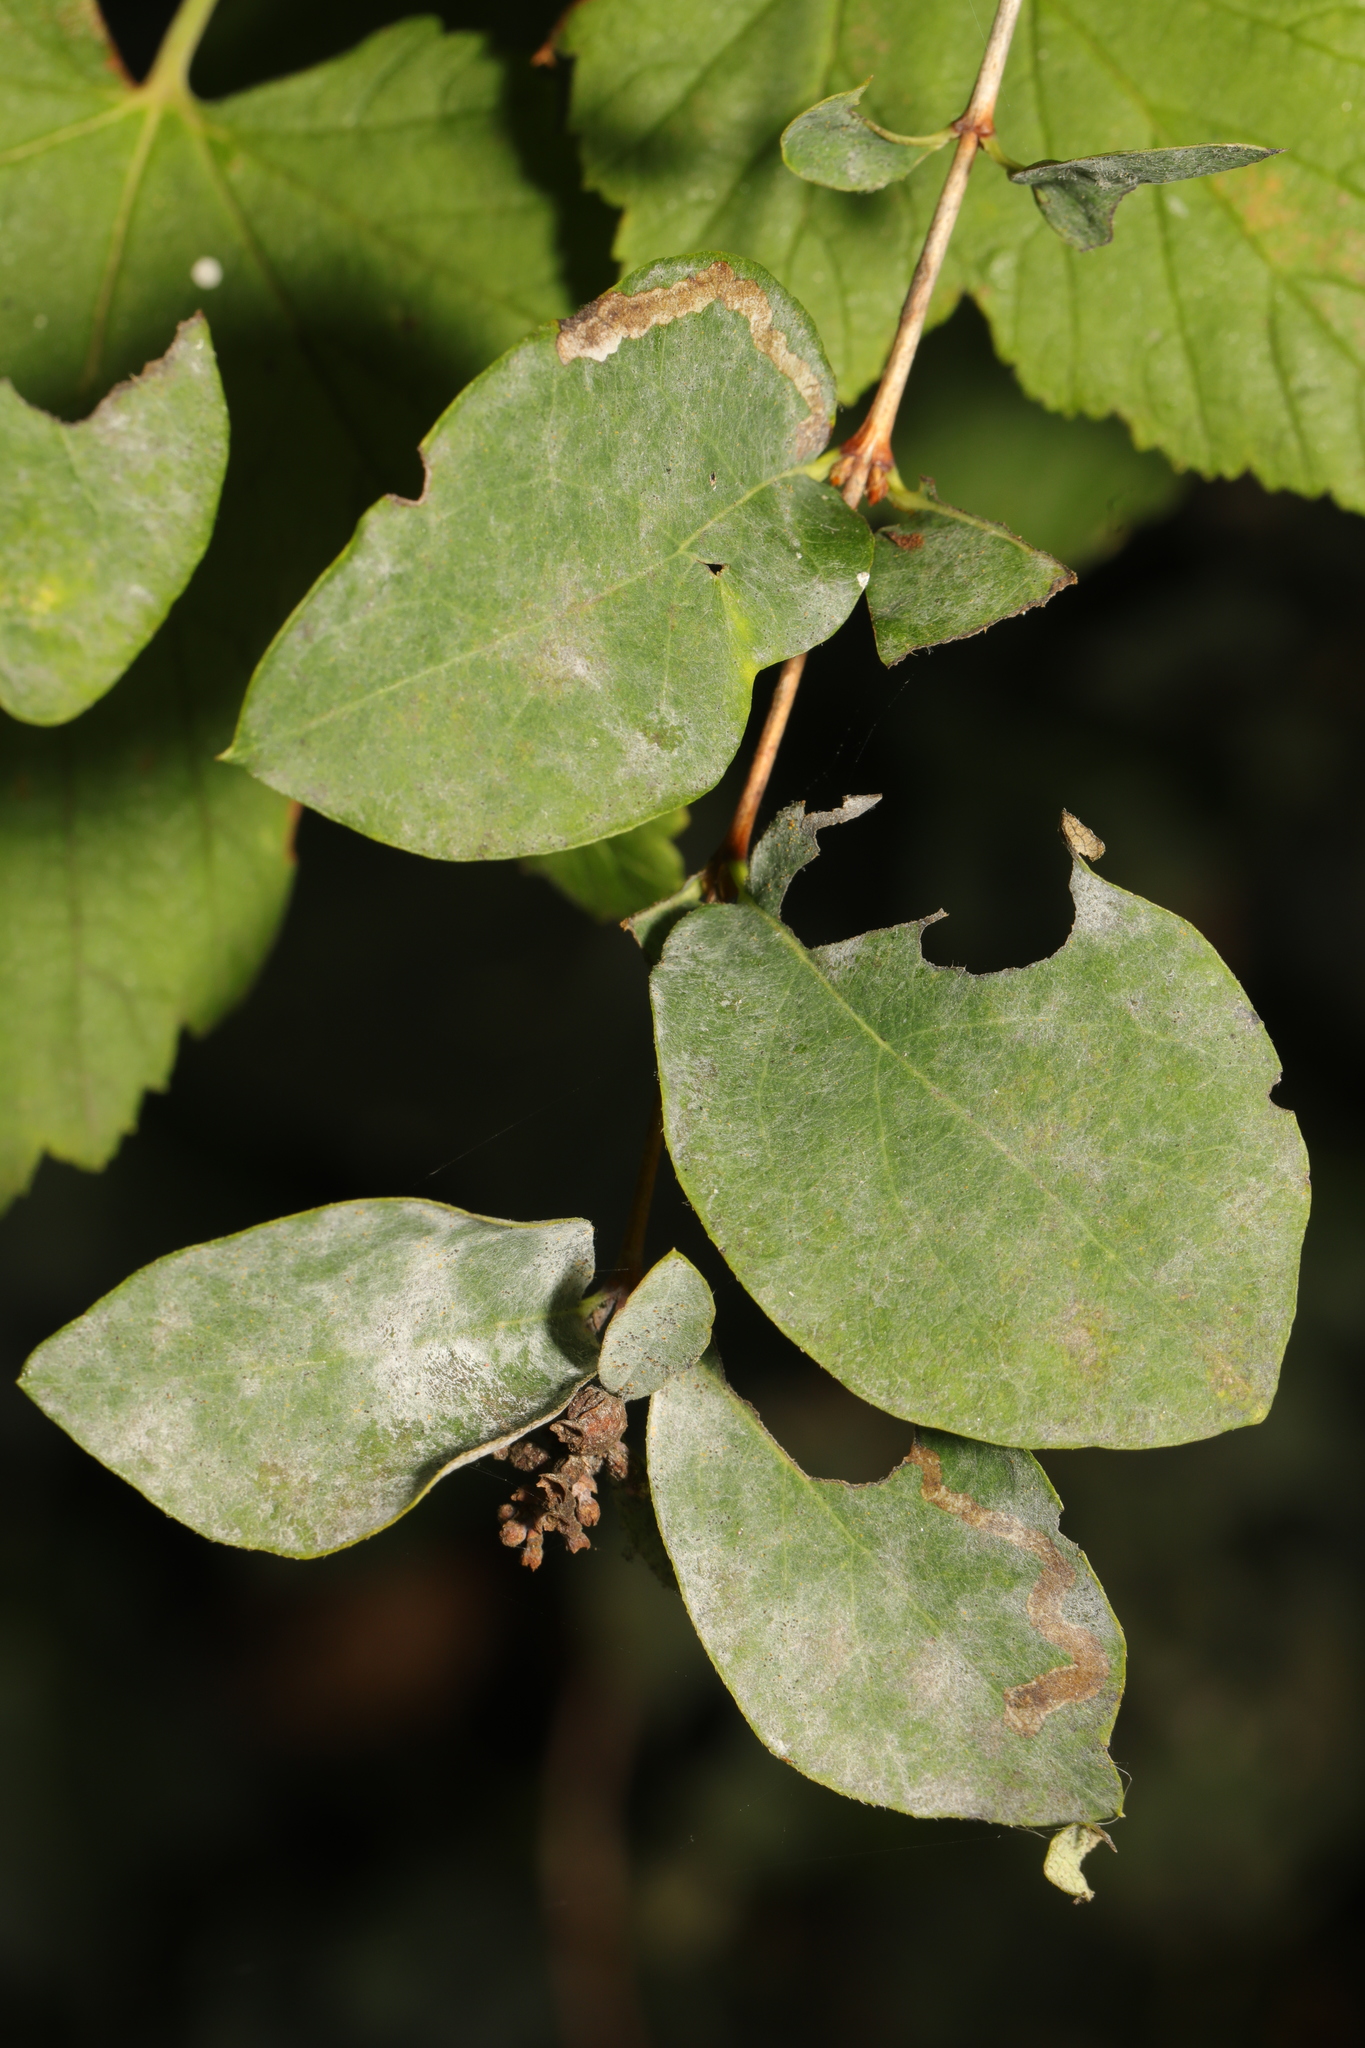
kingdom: Fungi
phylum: Ascomycota
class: Leotiomycetes
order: Helotiales
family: Erysiphaceae
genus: Erysiphe
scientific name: Erysiphe symphoricarpi
